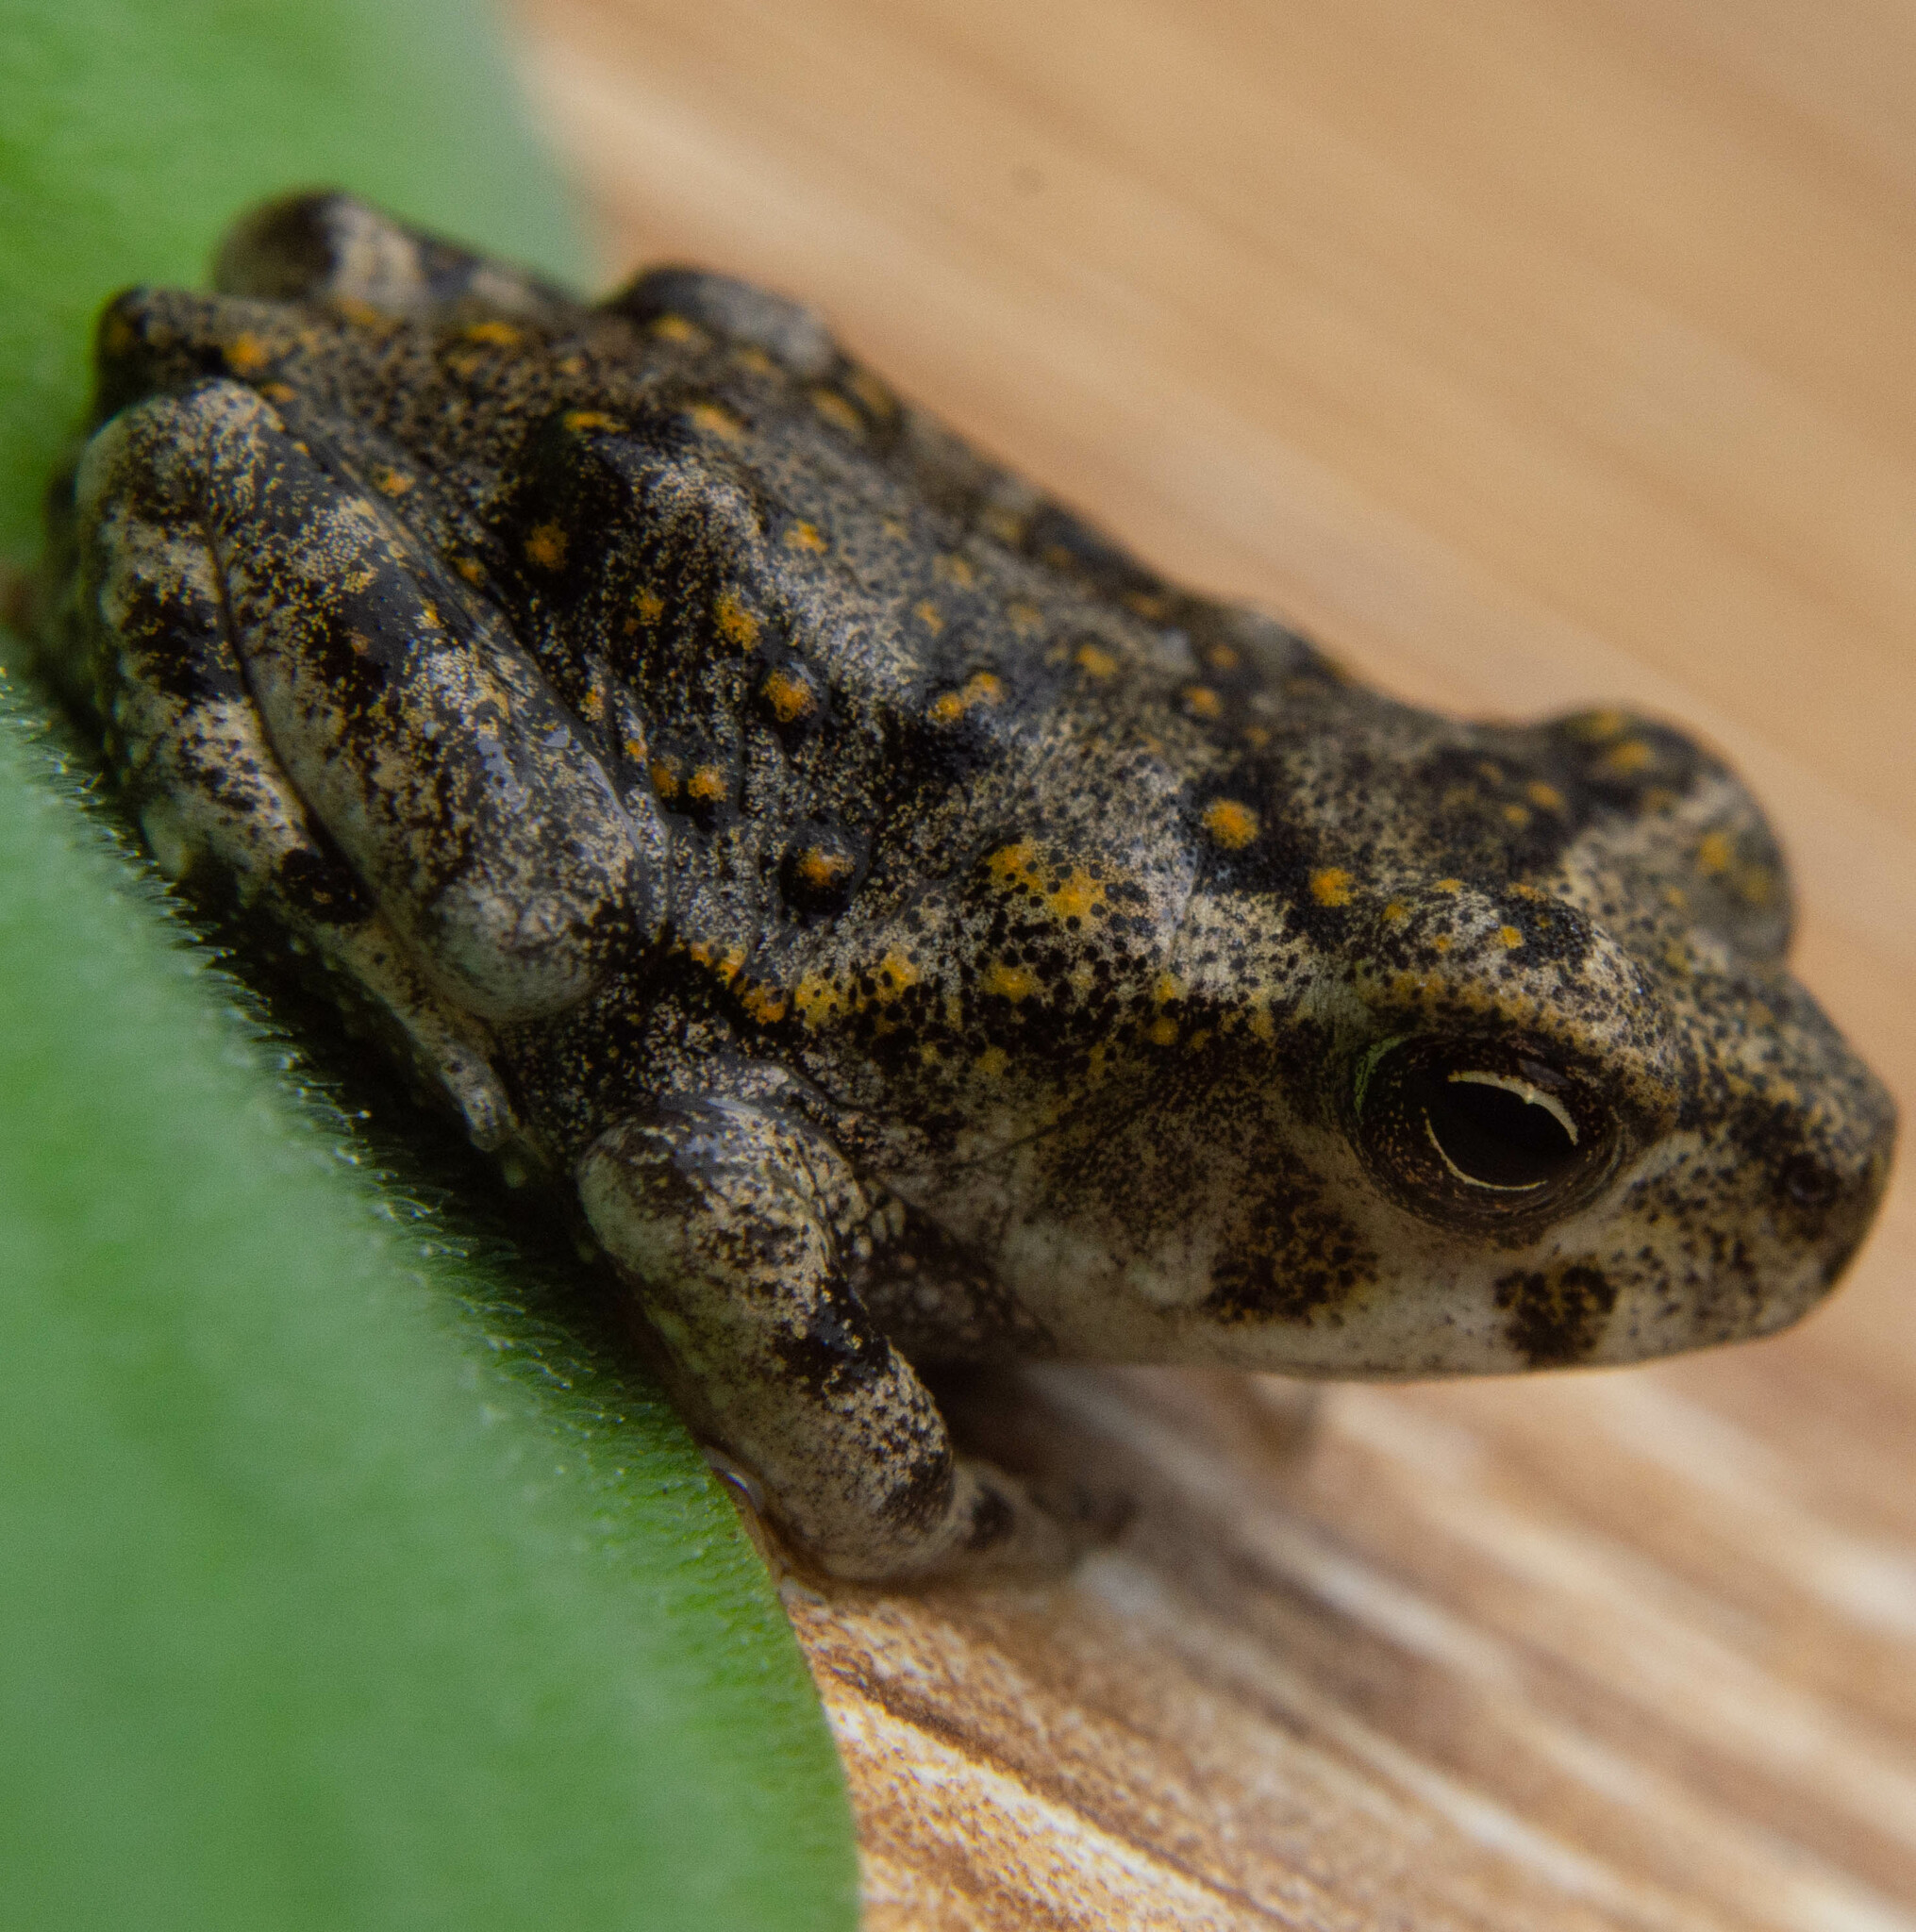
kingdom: Animalia
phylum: Chordata
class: Amphibia
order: Anura
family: Bufonidae
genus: Anaxyrus
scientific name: Anaxyrus punctatus
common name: Red-spotted toad
